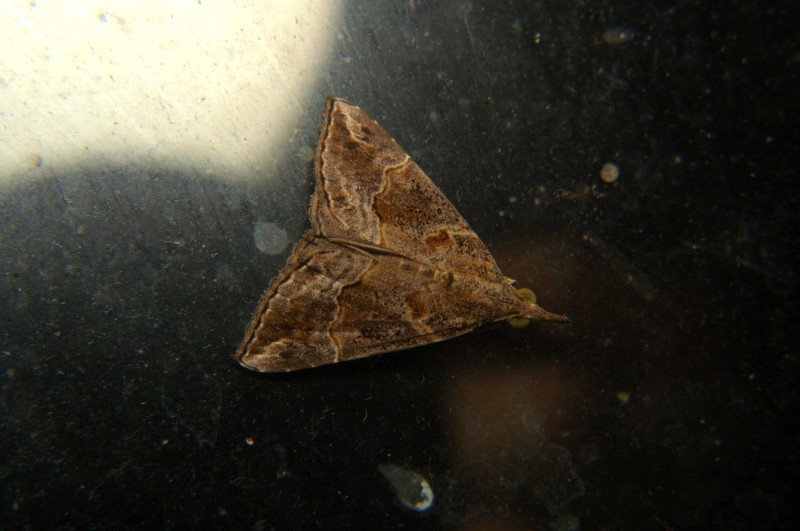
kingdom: Animalia
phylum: Arthropoda
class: Insecta
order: Lepidoptera
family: Erebidae
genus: Hypena
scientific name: Hypena commixtalis
